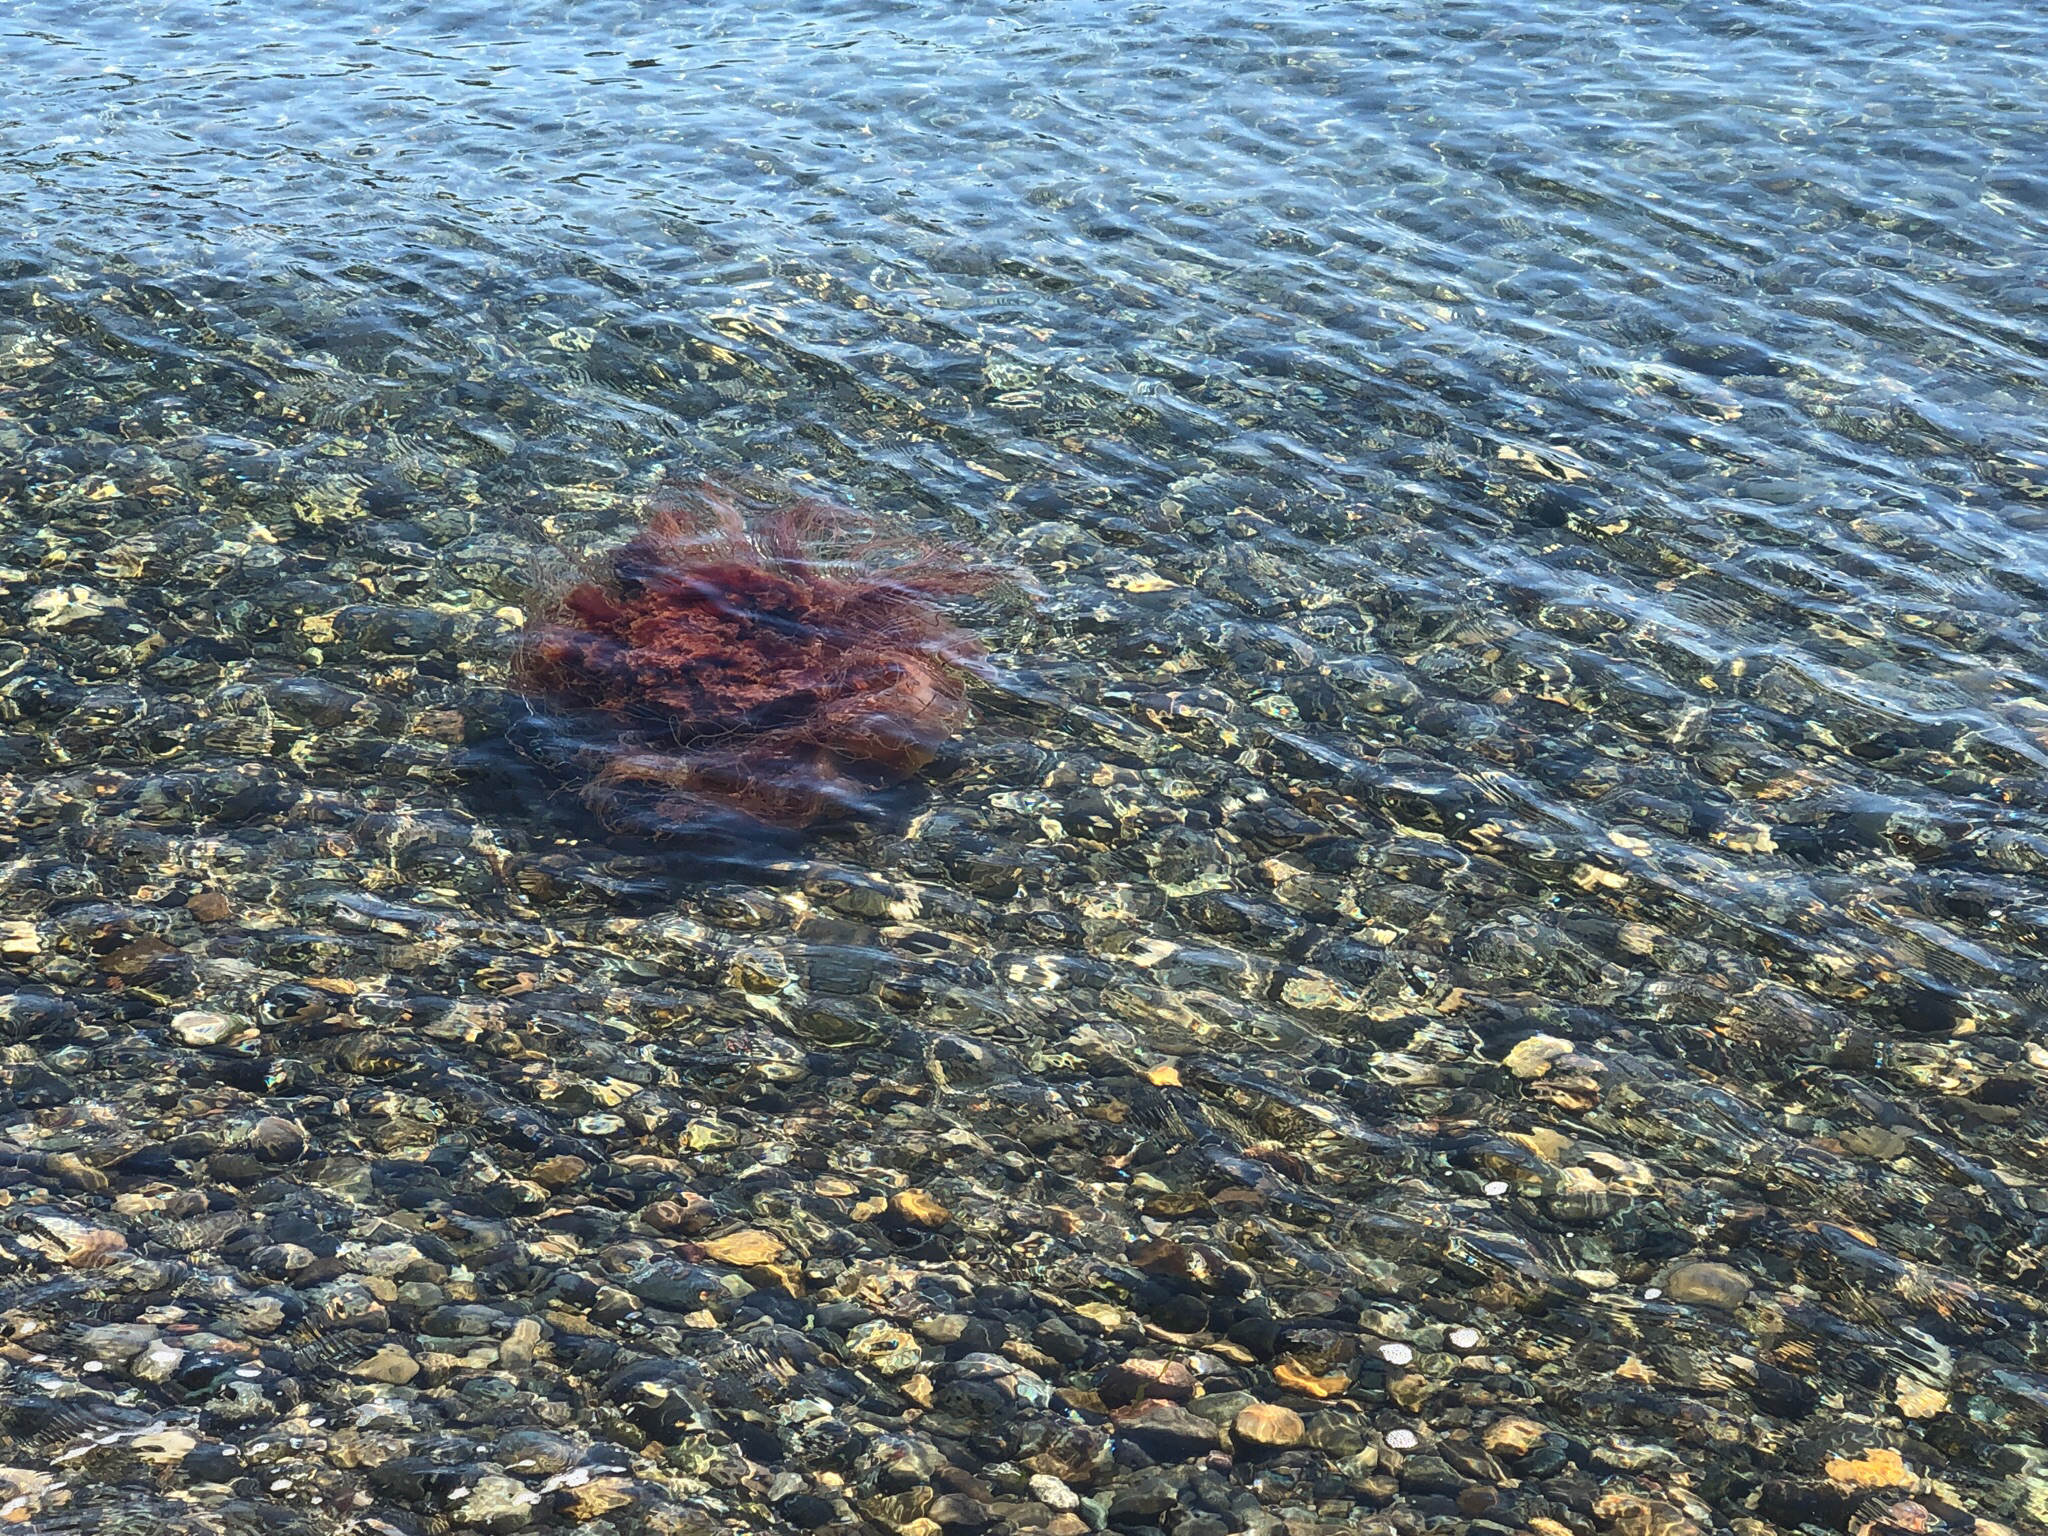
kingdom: Animalia
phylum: Cnidaria
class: Scyphozoa
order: Semaeostomeae
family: Cyaneidae
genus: Cyanea
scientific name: Cyanea ferruginea
